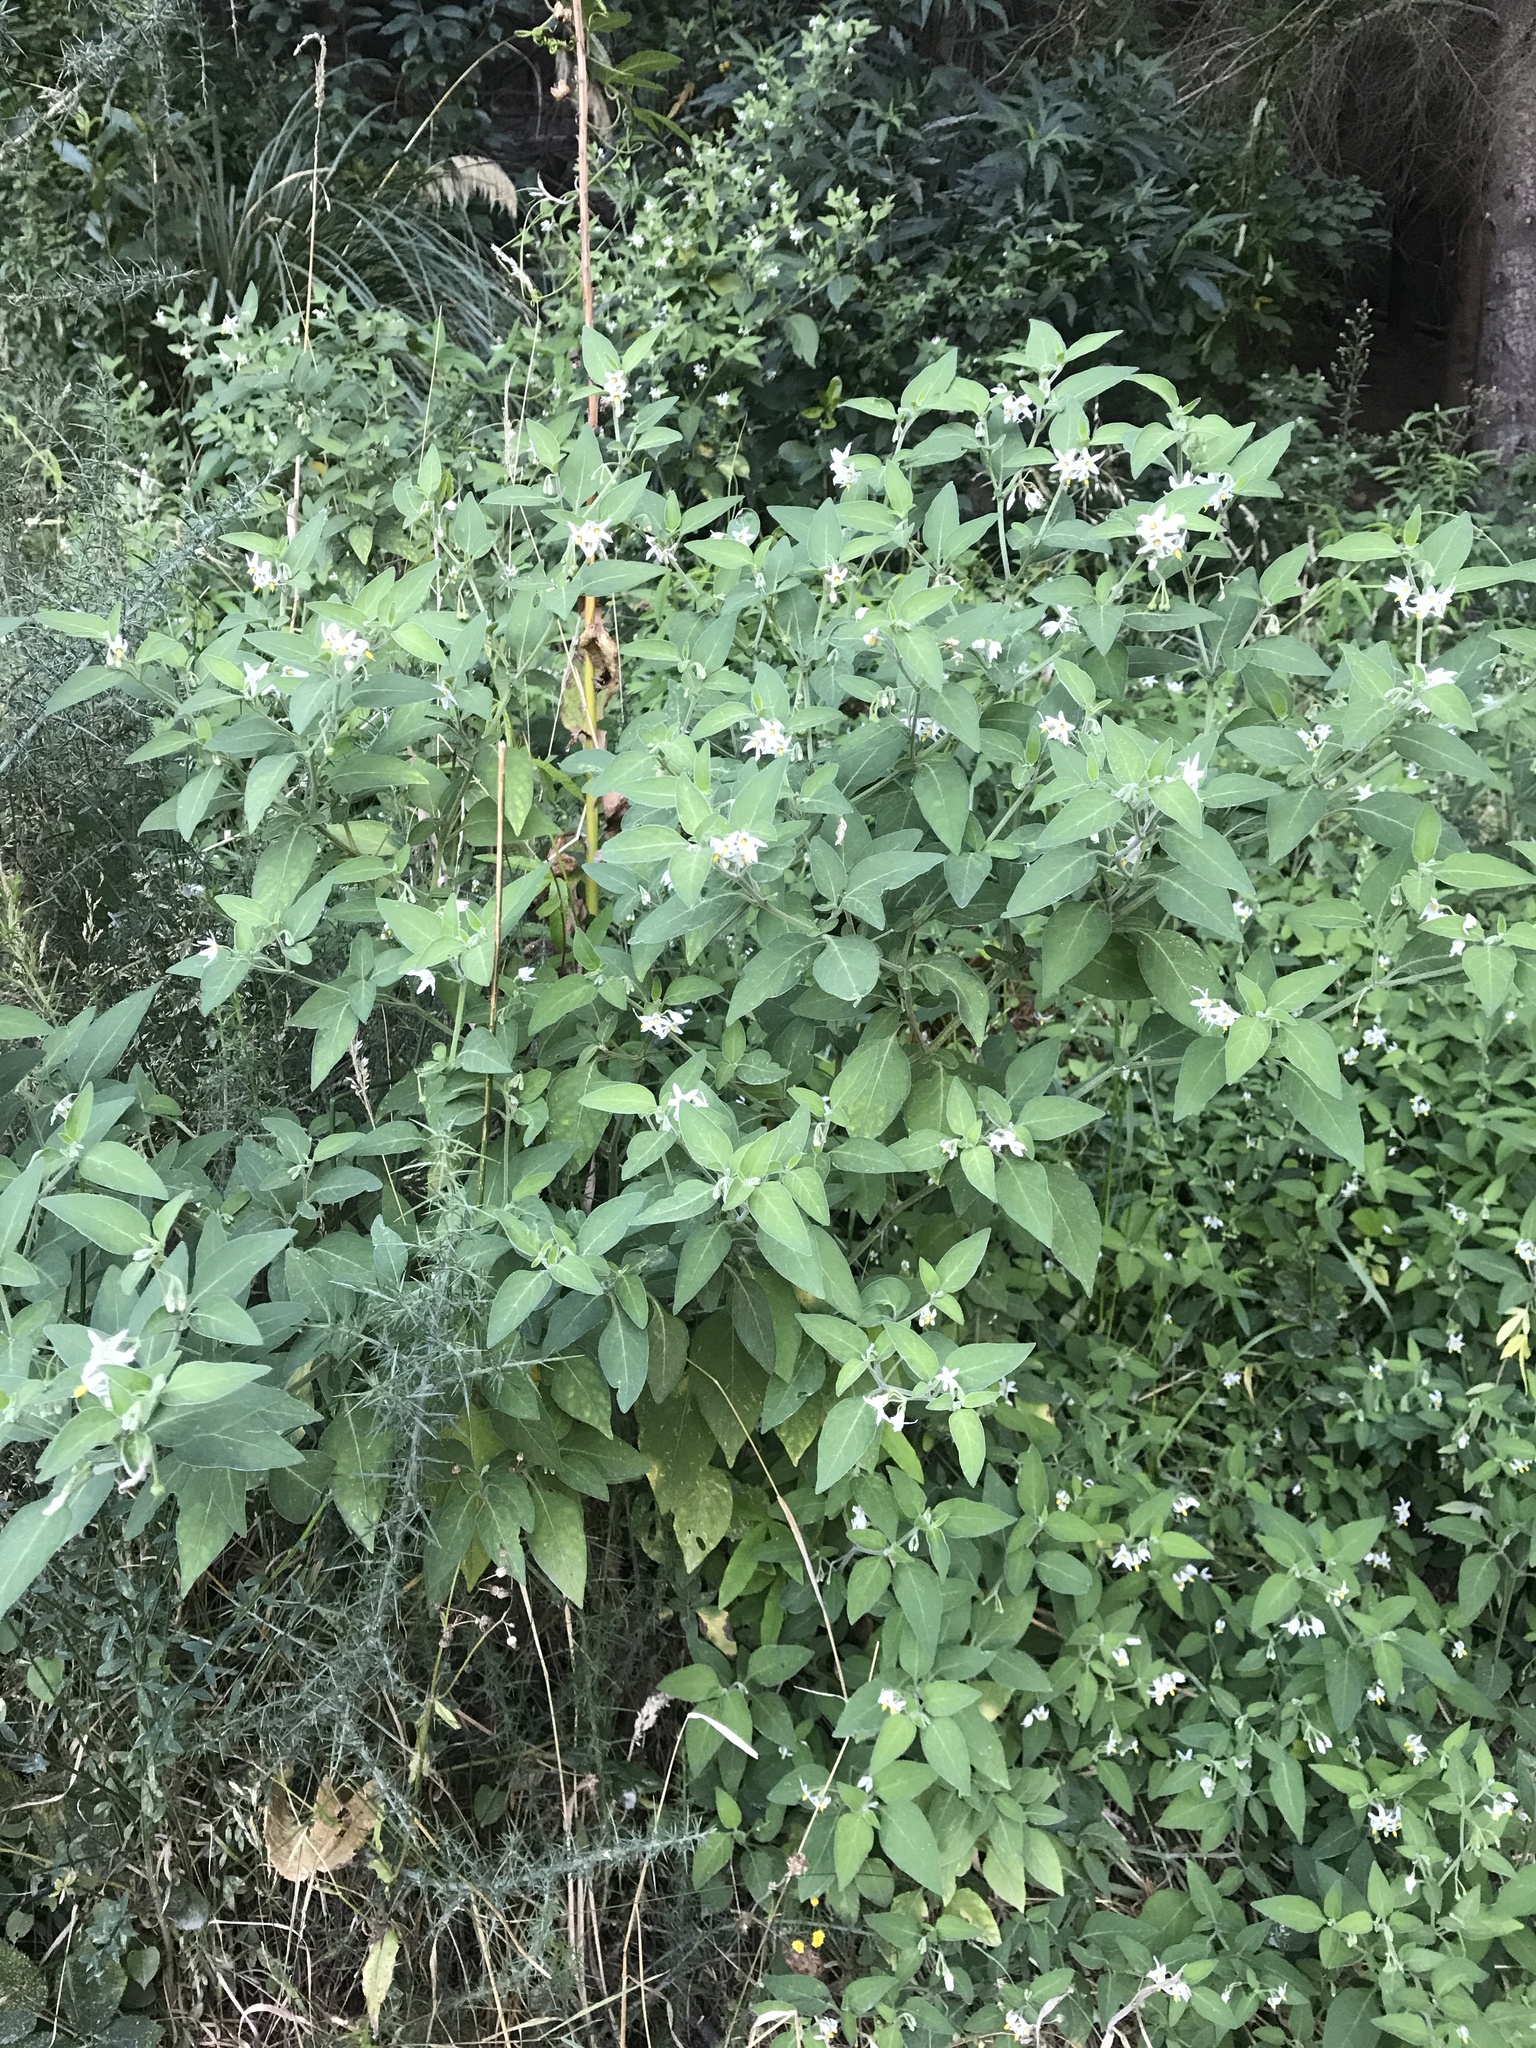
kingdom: Plantae
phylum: Tracheophyta
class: Magnoliopsida
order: Solanales
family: Solanaceae
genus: Solanum
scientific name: Solanum chenopodioides
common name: Tall nightshade
